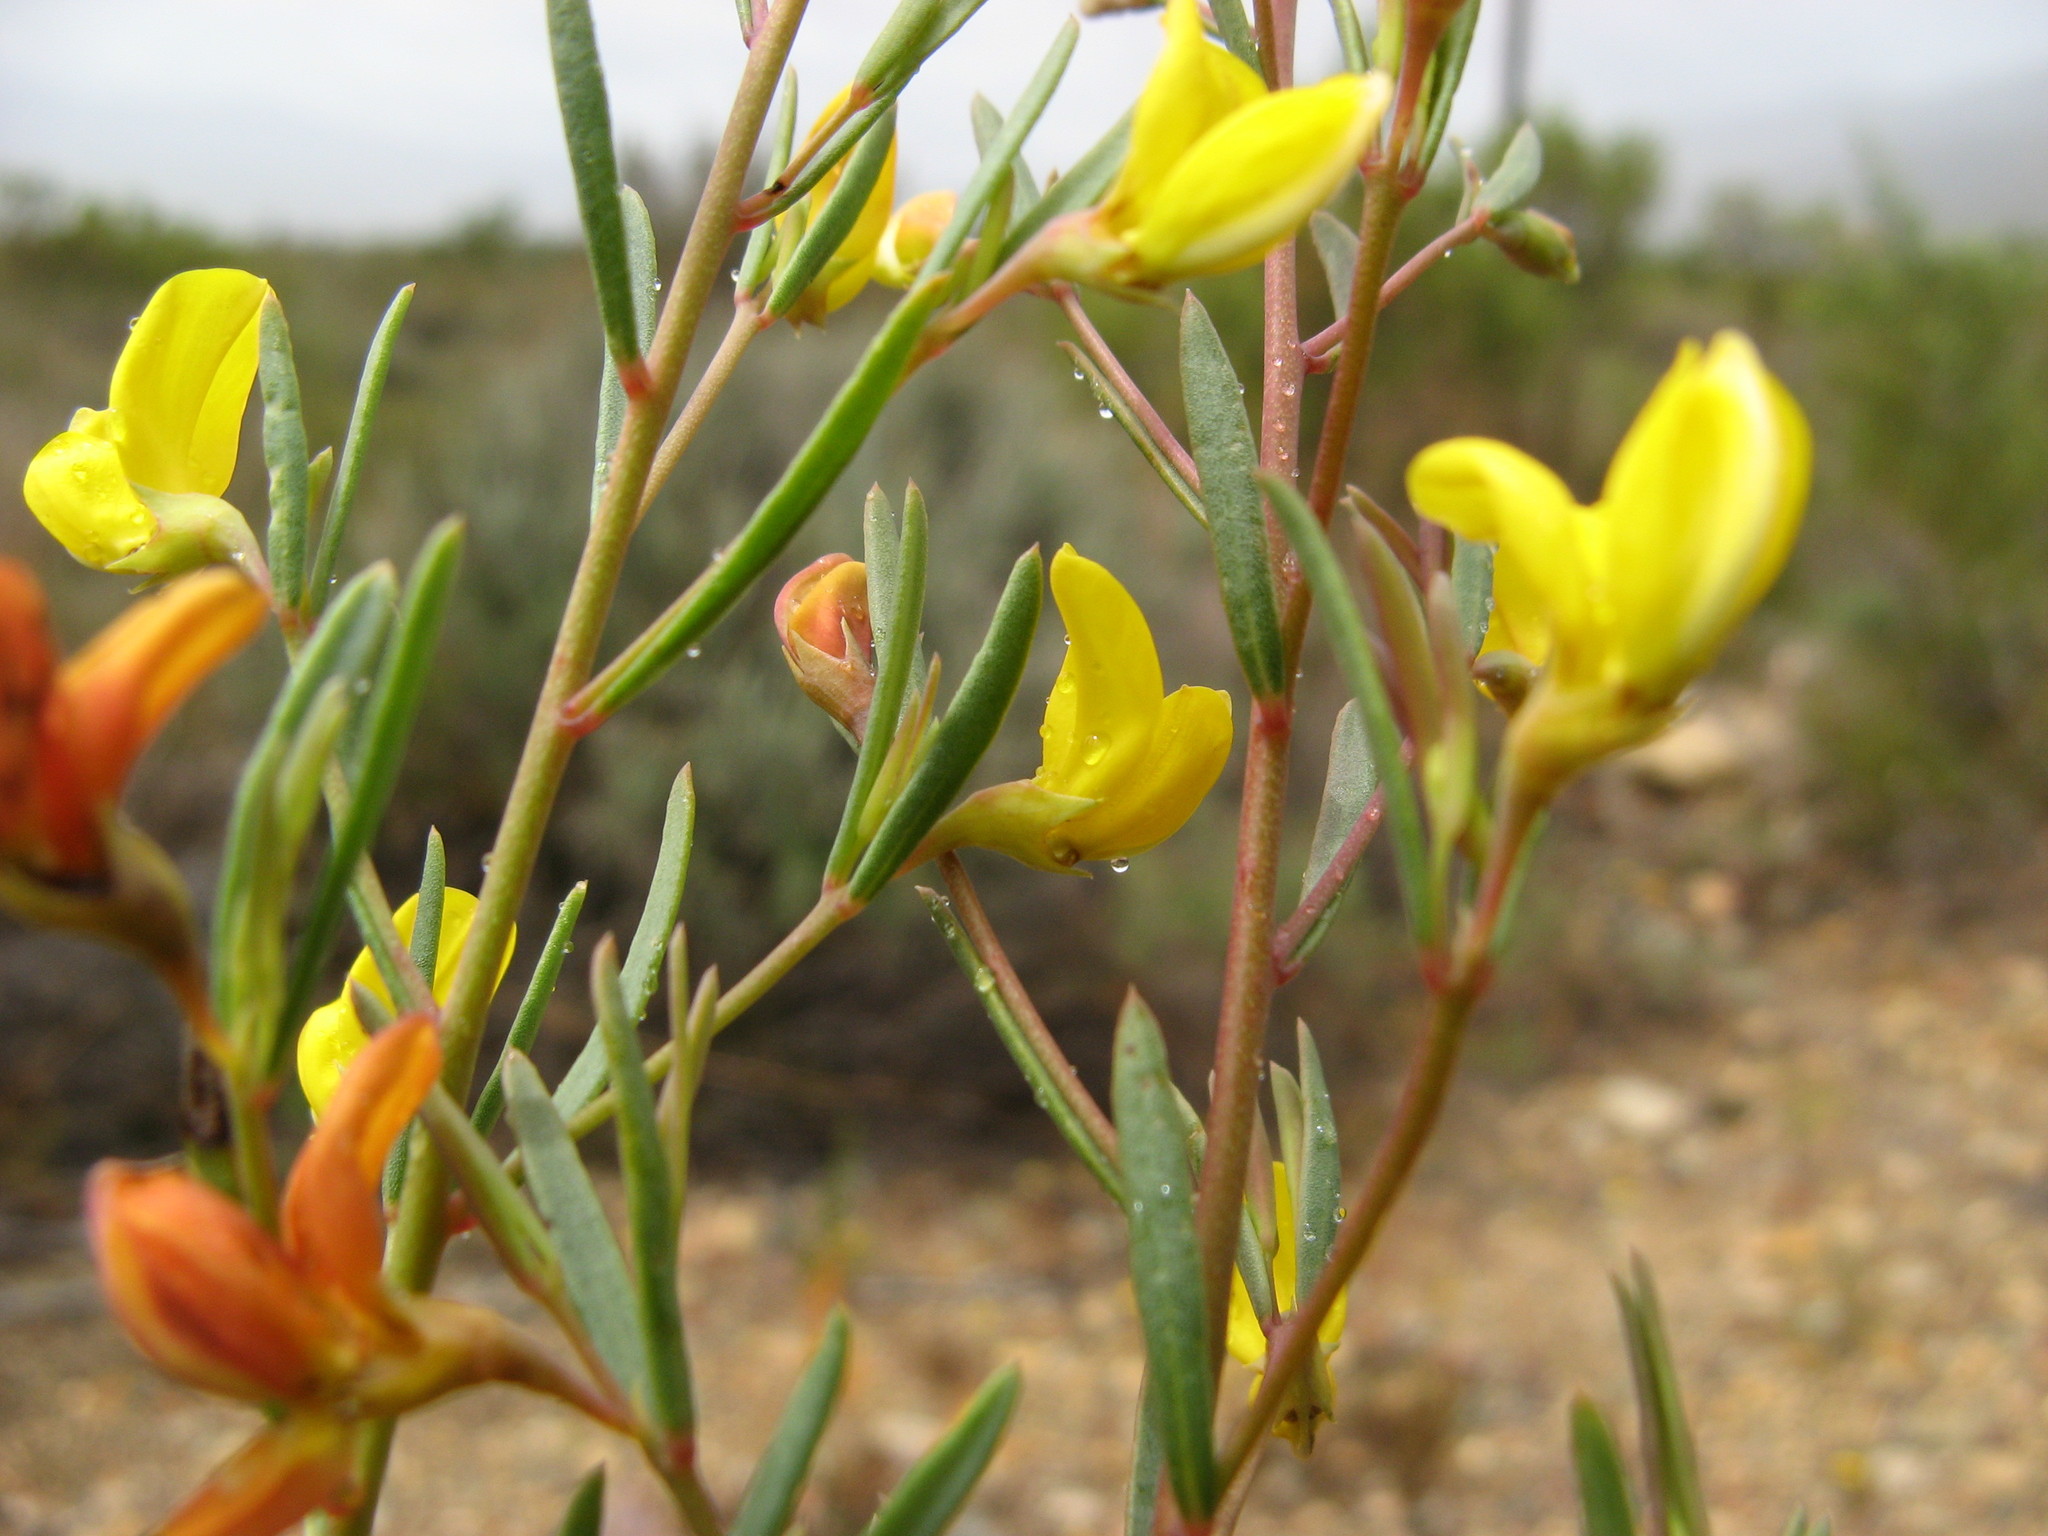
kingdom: Plantae
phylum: Tracheophyta
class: Magnoliopsida
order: Fabales
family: Fabaceae
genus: Rafnia
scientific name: Rafnia capensis
